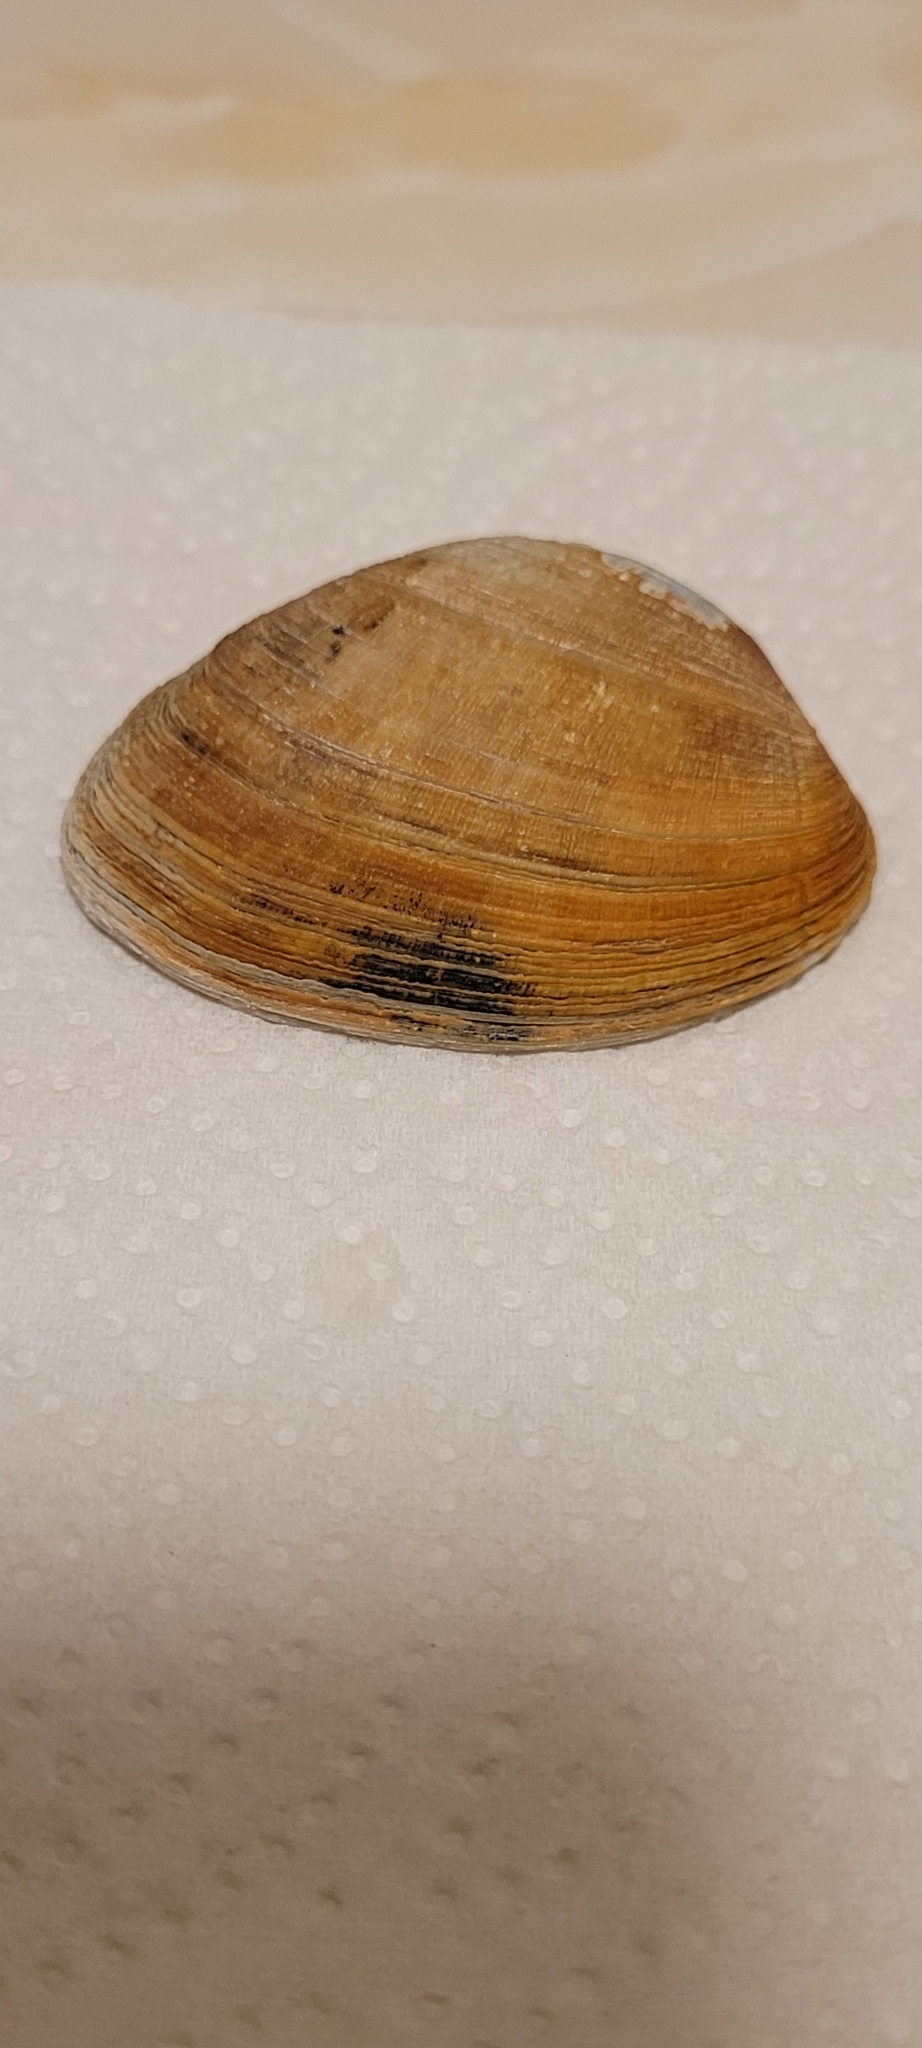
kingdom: Animalia
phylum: Mollusca
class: Bivalvia
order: Venerida
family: Veneridae
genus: Venerupis
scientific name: Venerupis corrugata
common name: Pullet carpet shell
